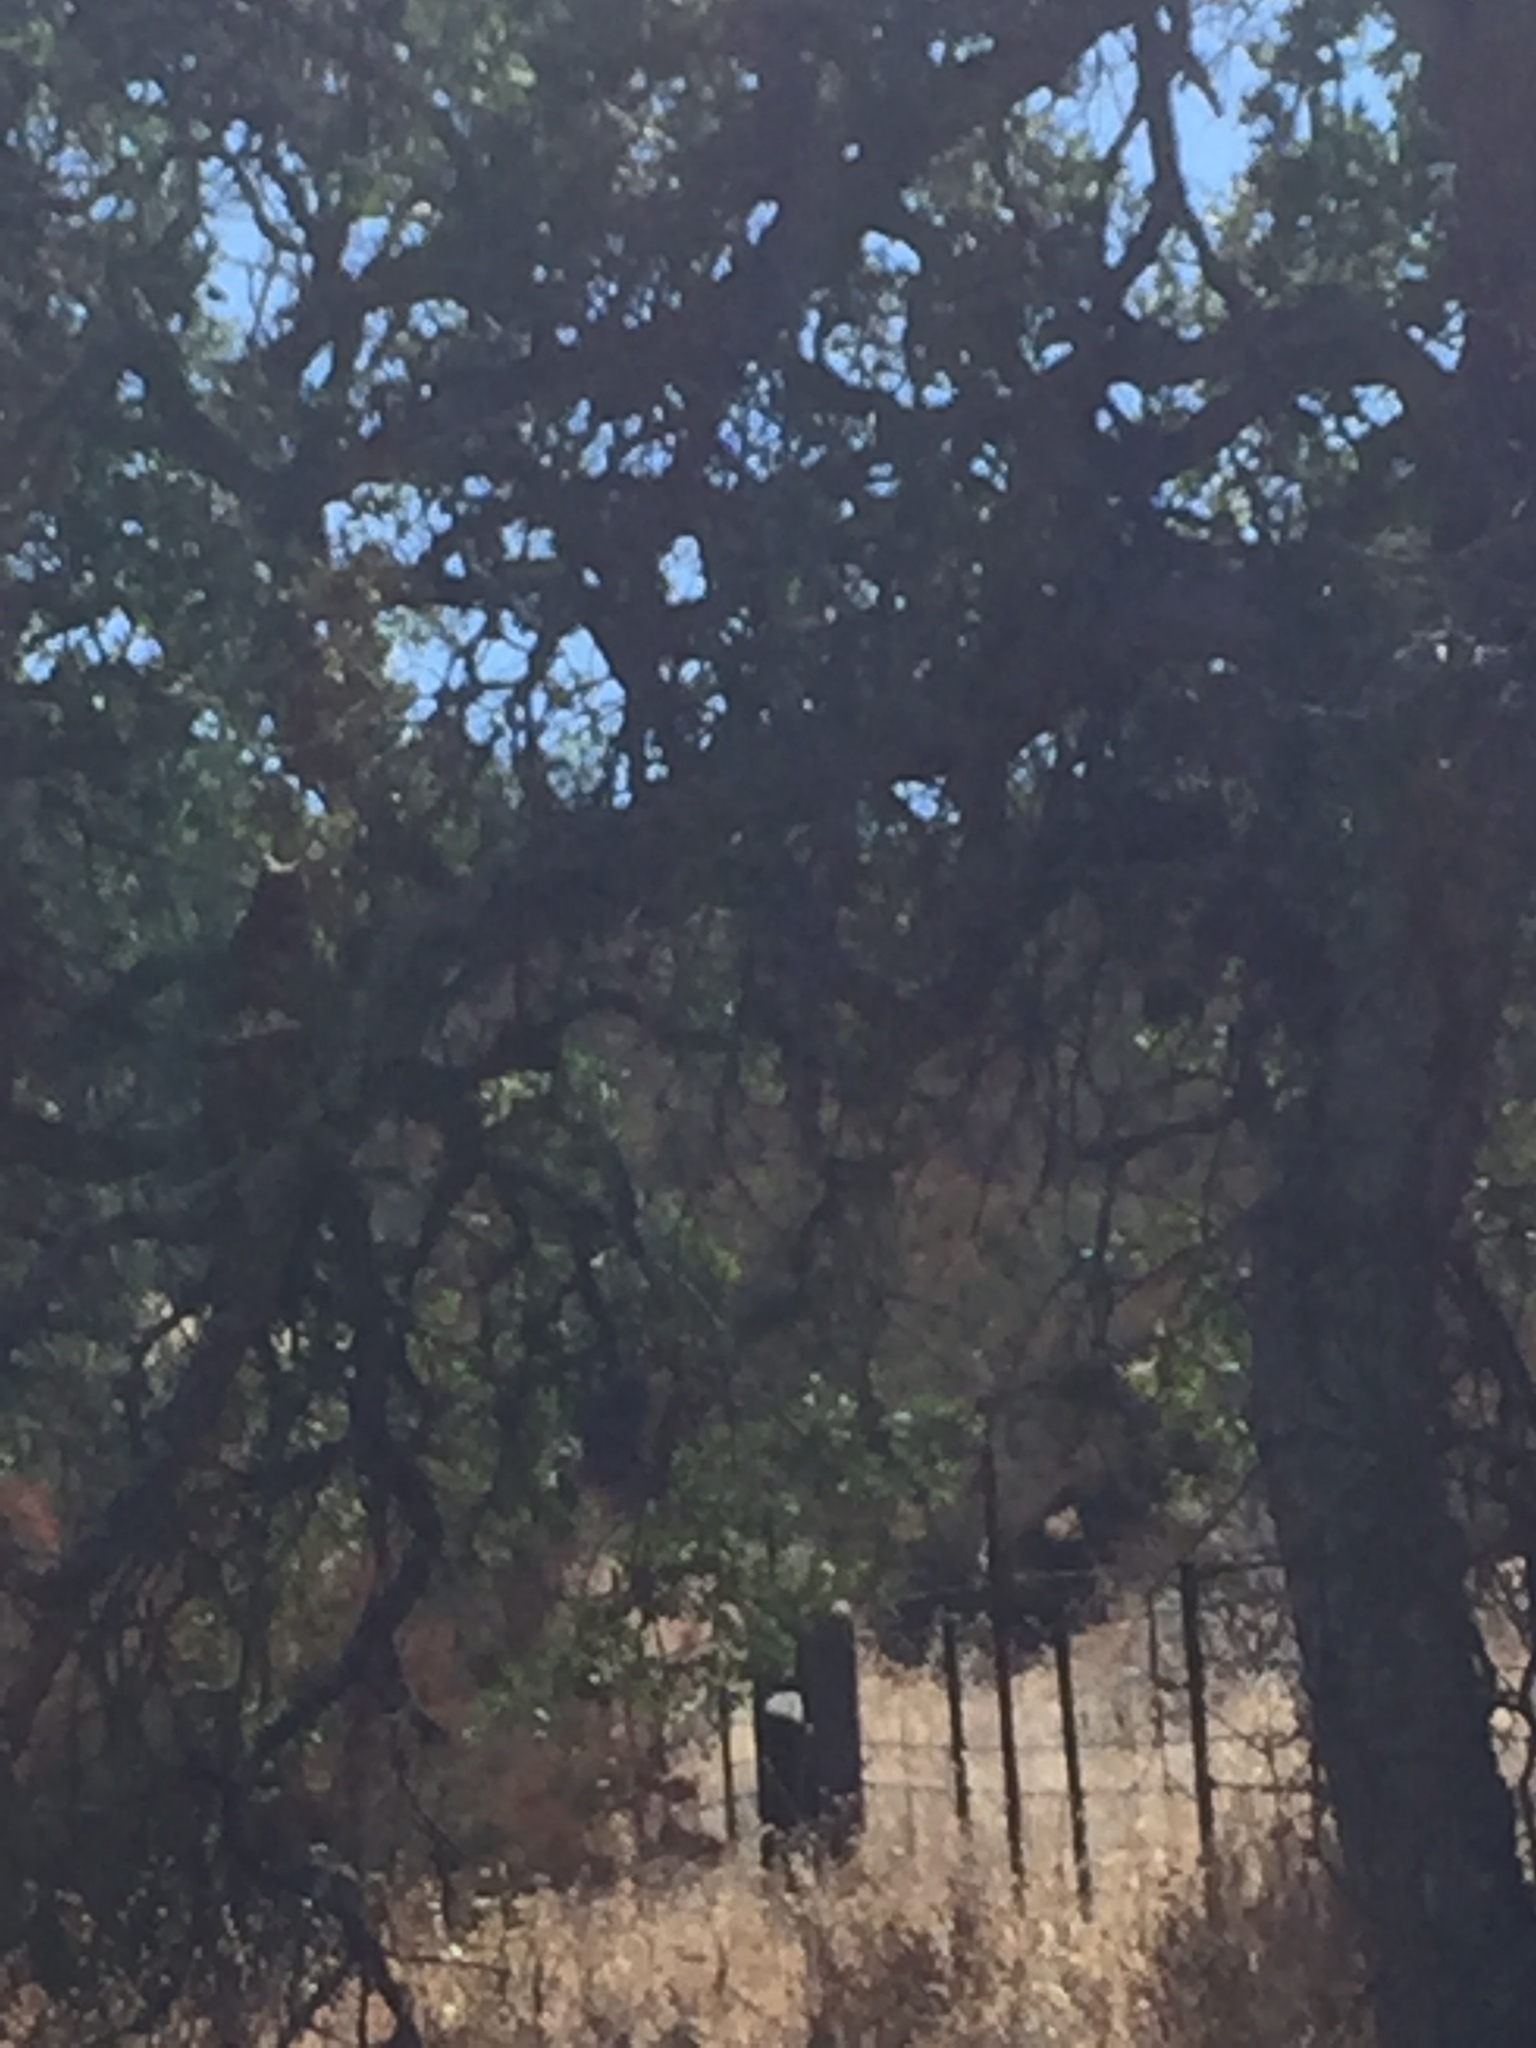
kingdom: Animalia
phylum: Chordata
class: Aves
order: Strigiformes
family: Strigidae
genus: Bubo
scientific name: Bubo virginianus
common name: Great horned owl
